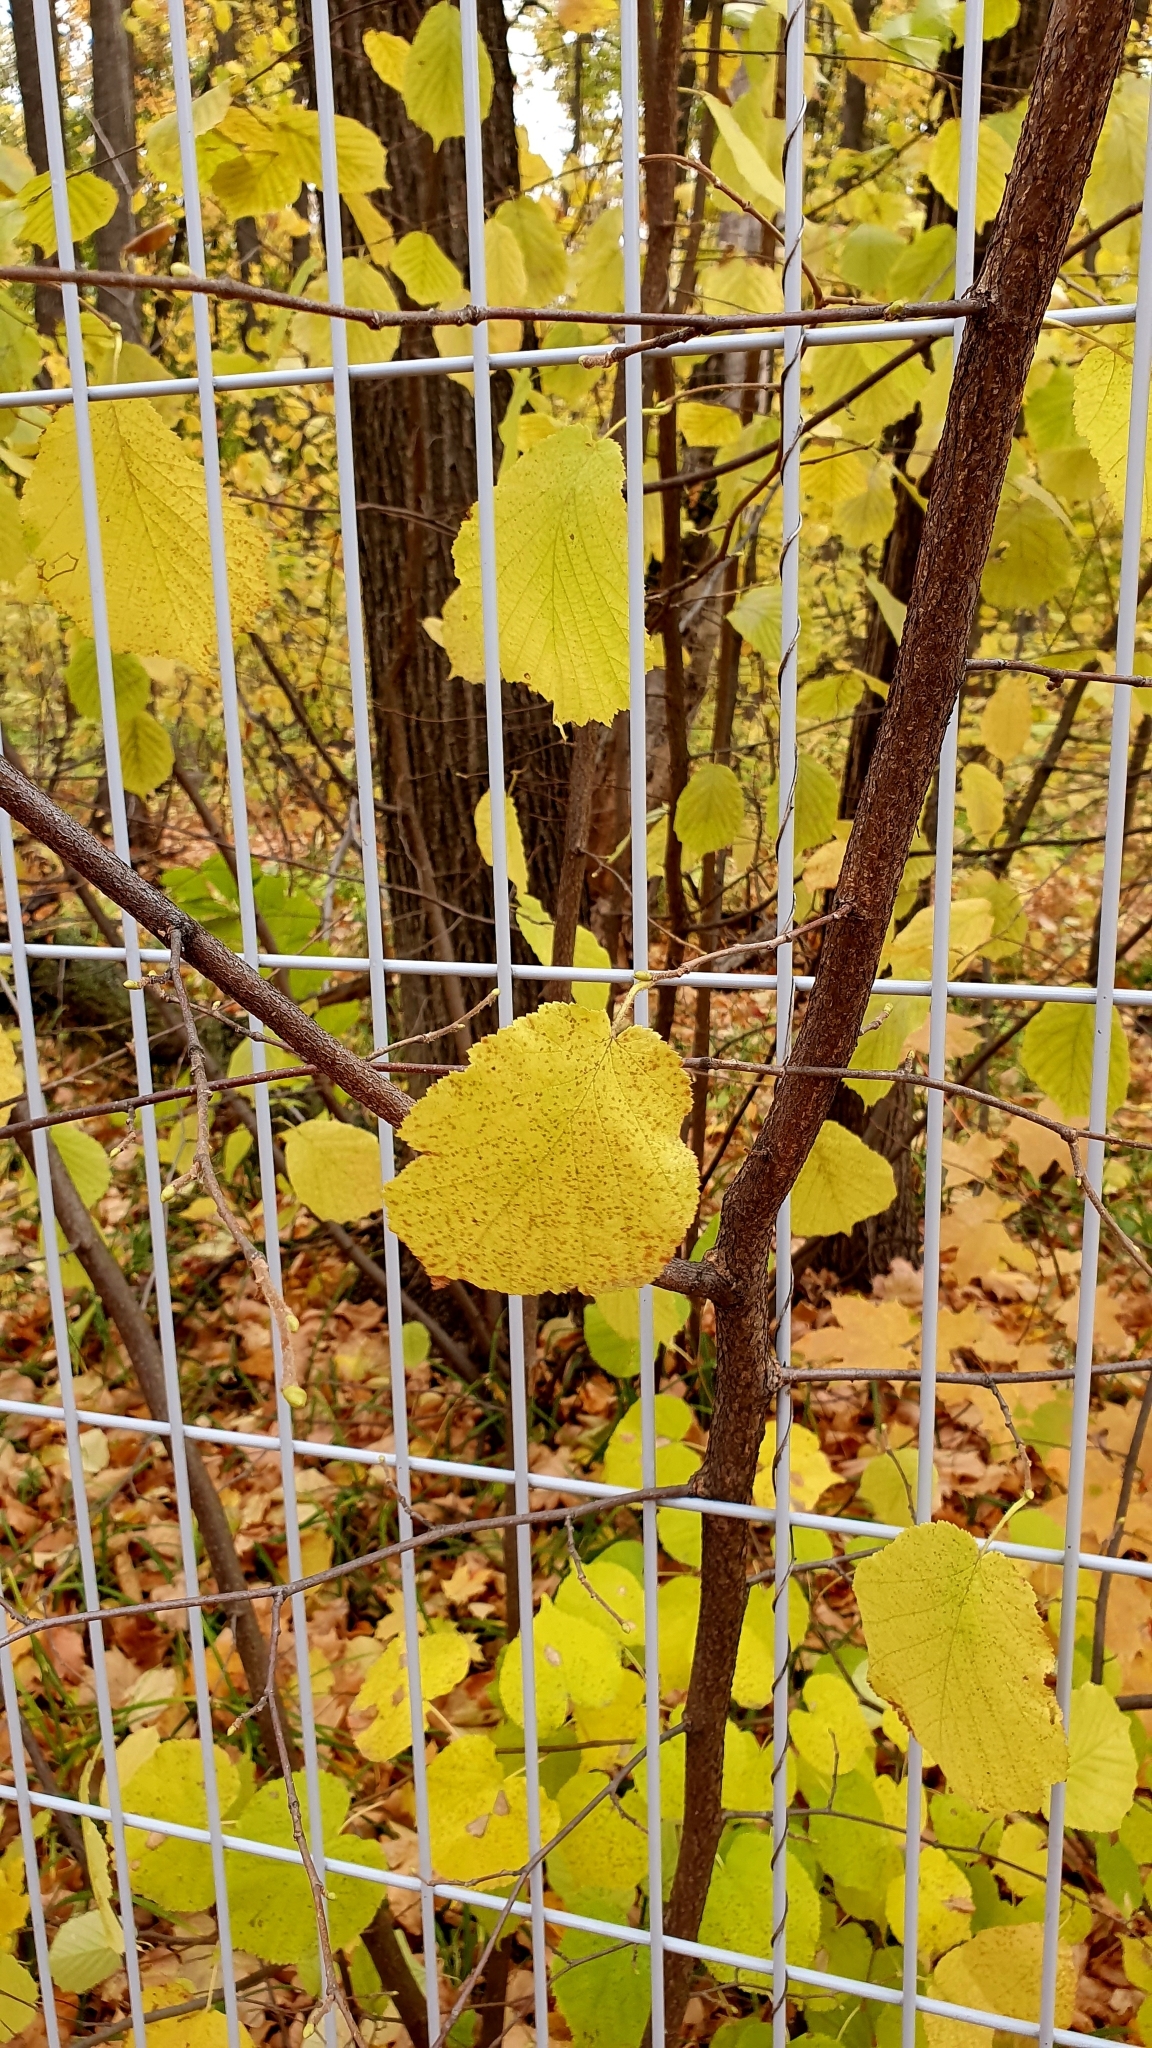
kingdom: Plantae
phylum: Tracheophyta
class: Magnoliopsida
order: Fagales
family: Betulaceae
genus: Corylus
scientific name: Corylus avellana
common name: European hazel
